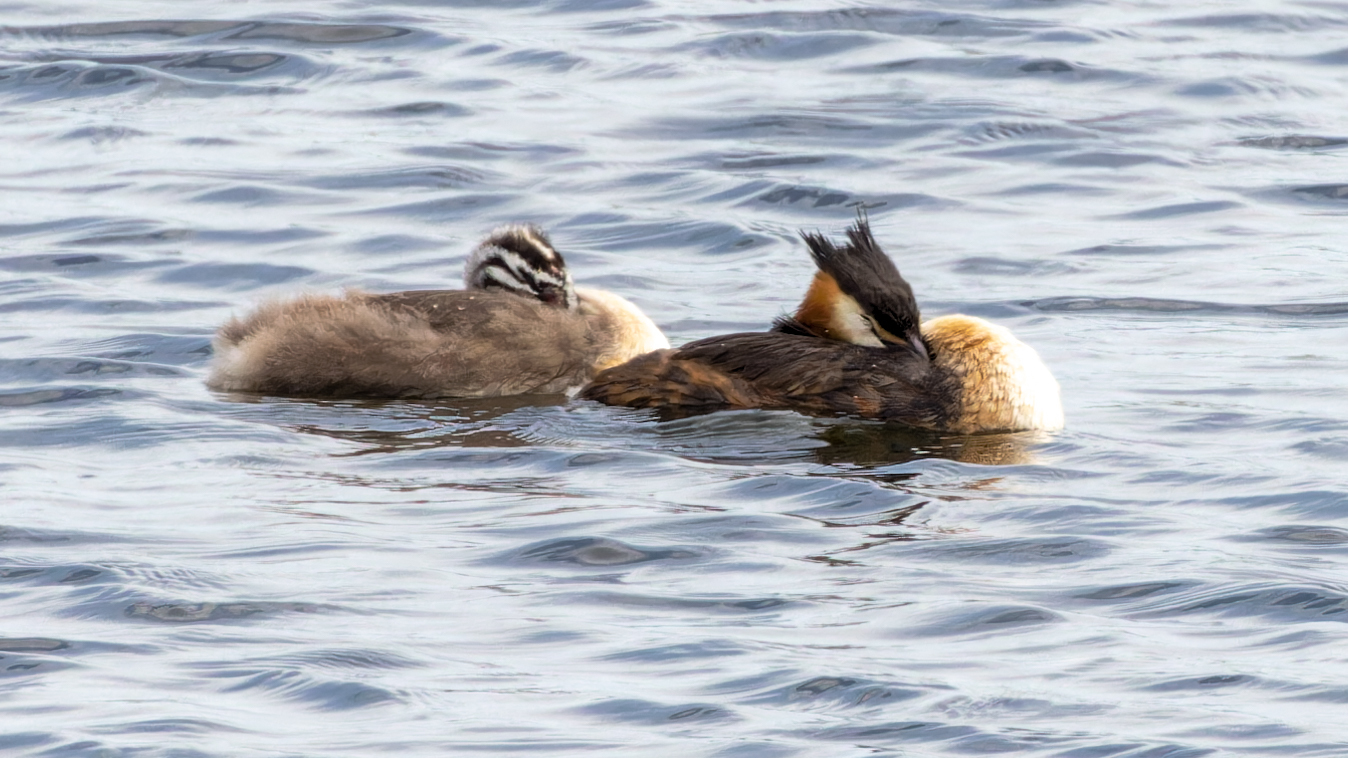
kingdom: Animalia
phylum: Chordata
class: Aves
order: Podicipediformes
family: Podicipedidae
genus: Podiceps
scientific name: Podiceps cristatus
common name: Great crested grebe
